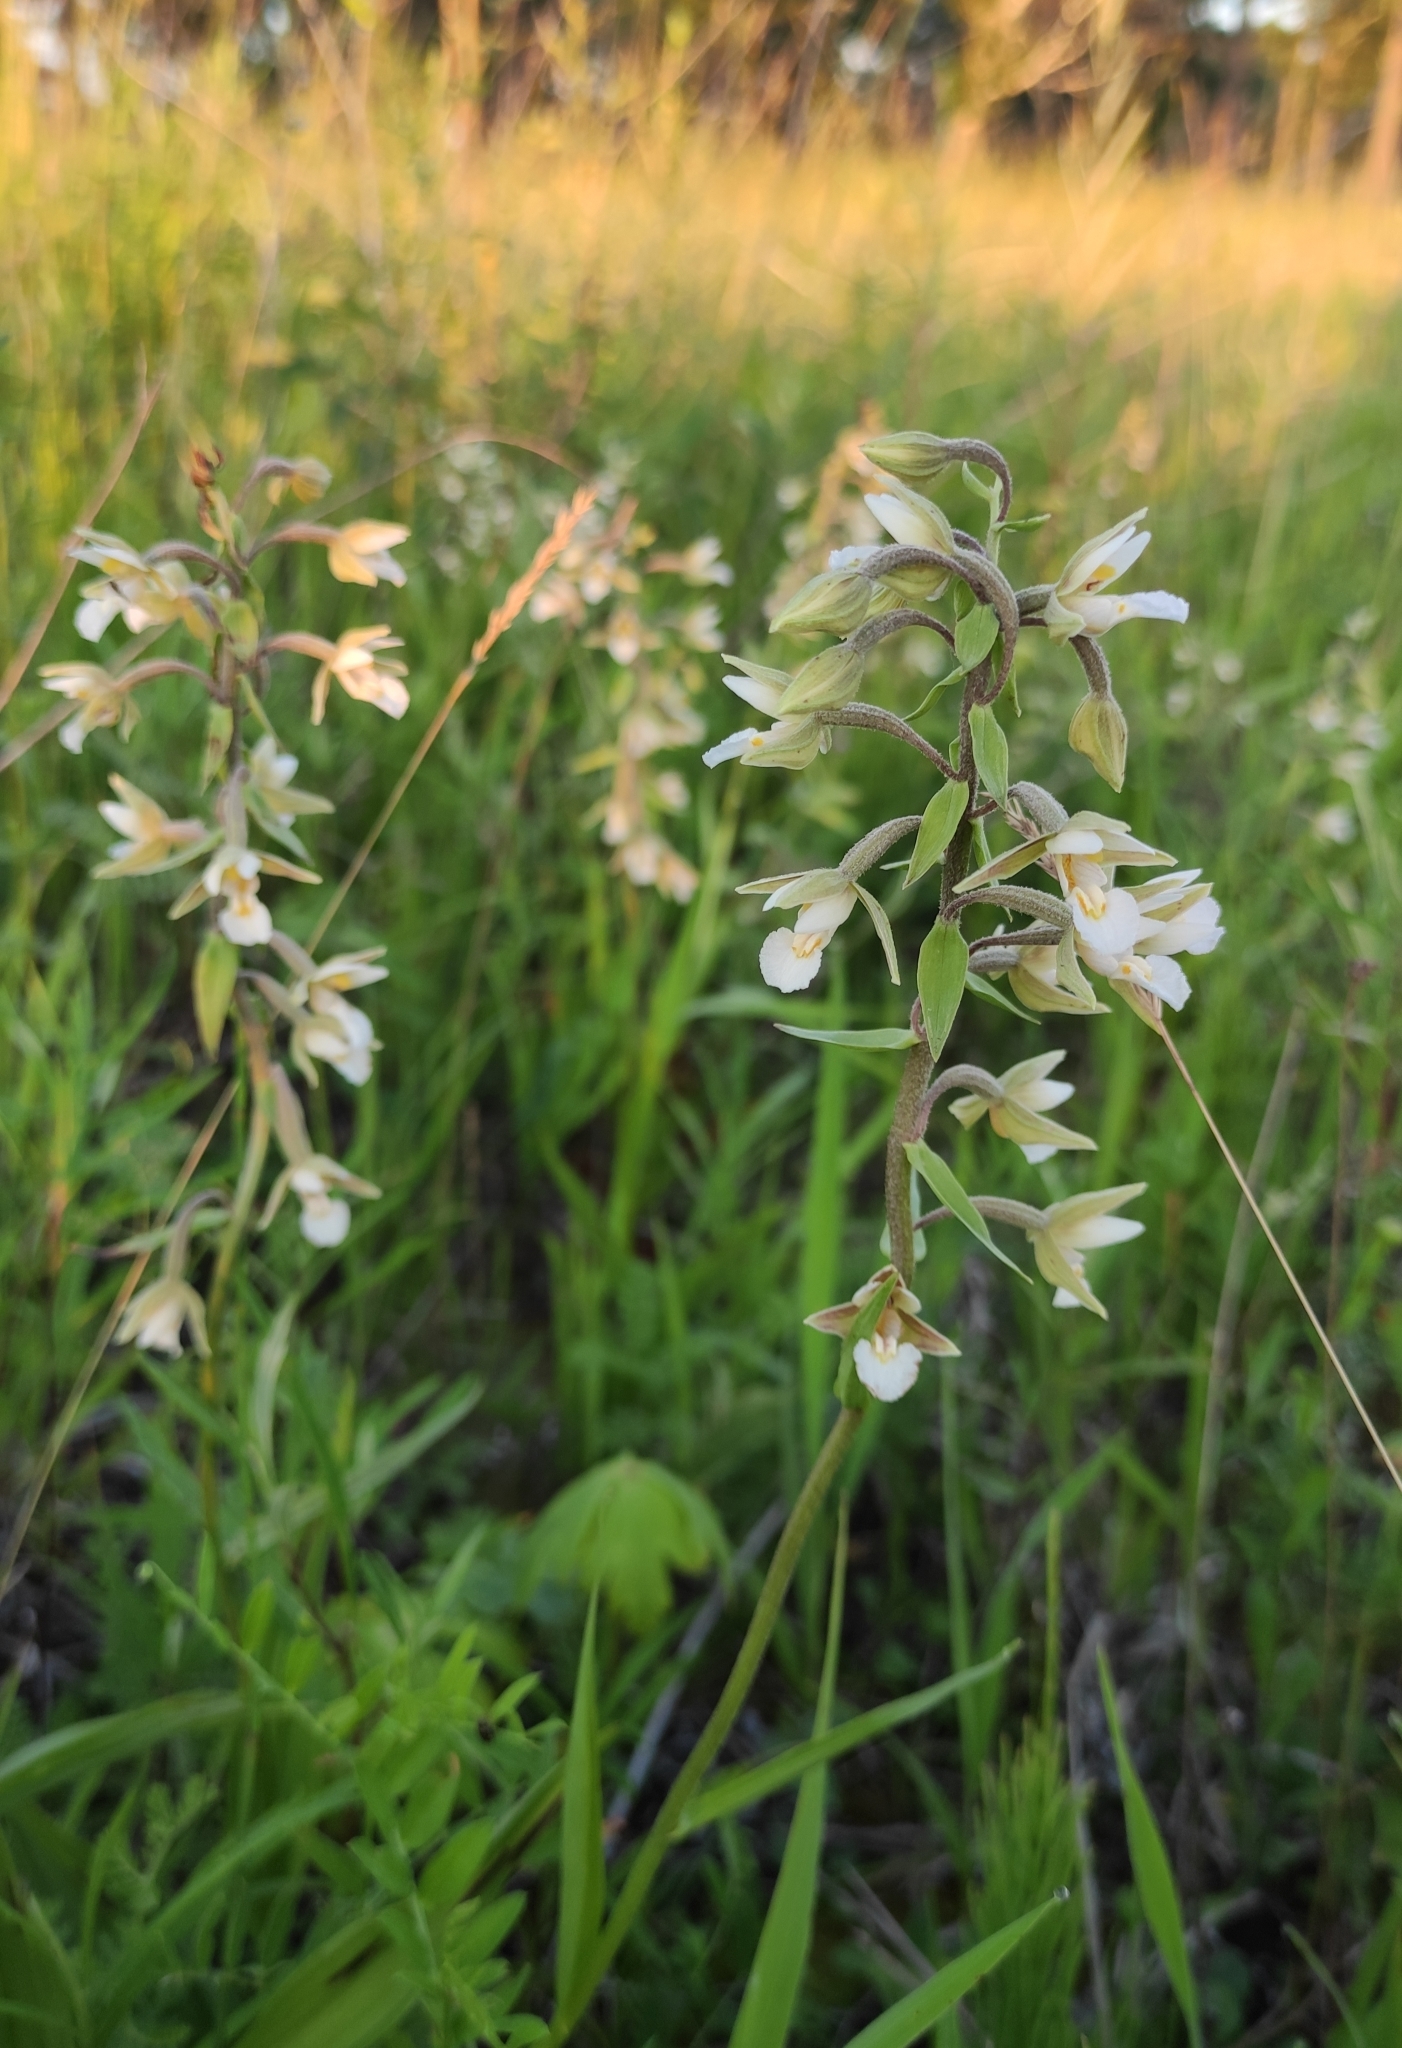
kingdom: Plantae
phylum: Tracheophyta
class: Liliopsida
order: Asparagales
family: Orchidaceae
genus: Epipactis
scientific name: Epipactis palustris
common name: Marsh helleborine
